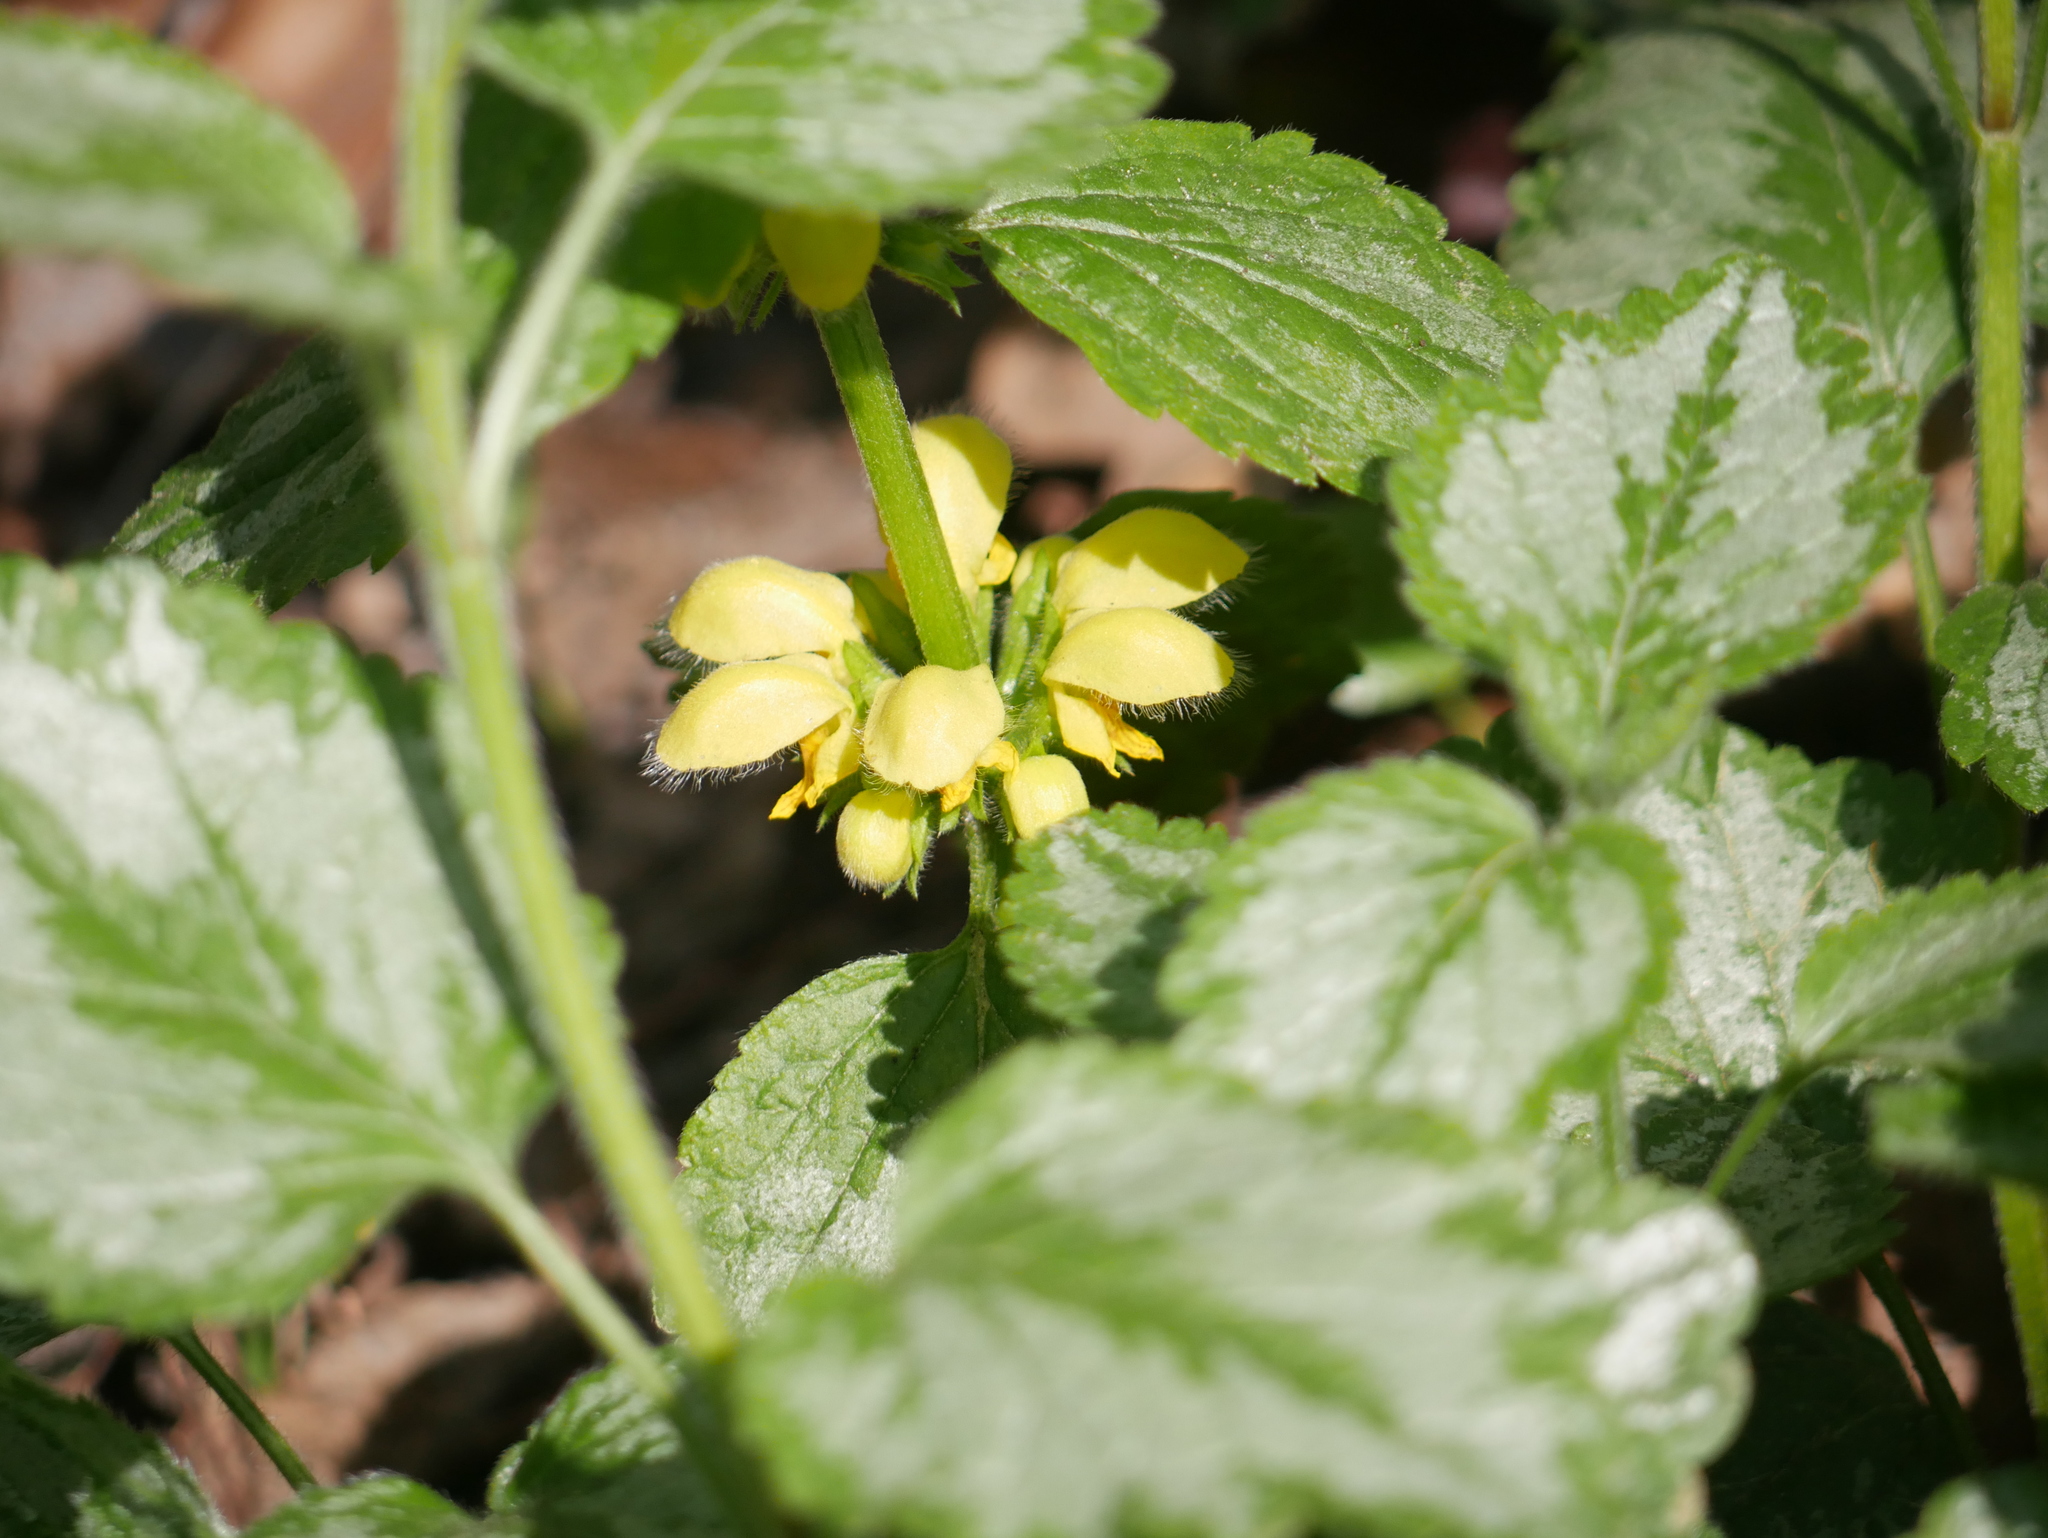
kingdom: Plantae
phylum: Tracheophyta
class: Magnoliopsida
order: Lamiales
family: Lamiaceae
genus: Lamium
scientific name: Lamium galeobdolon
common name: Yellow archangel
